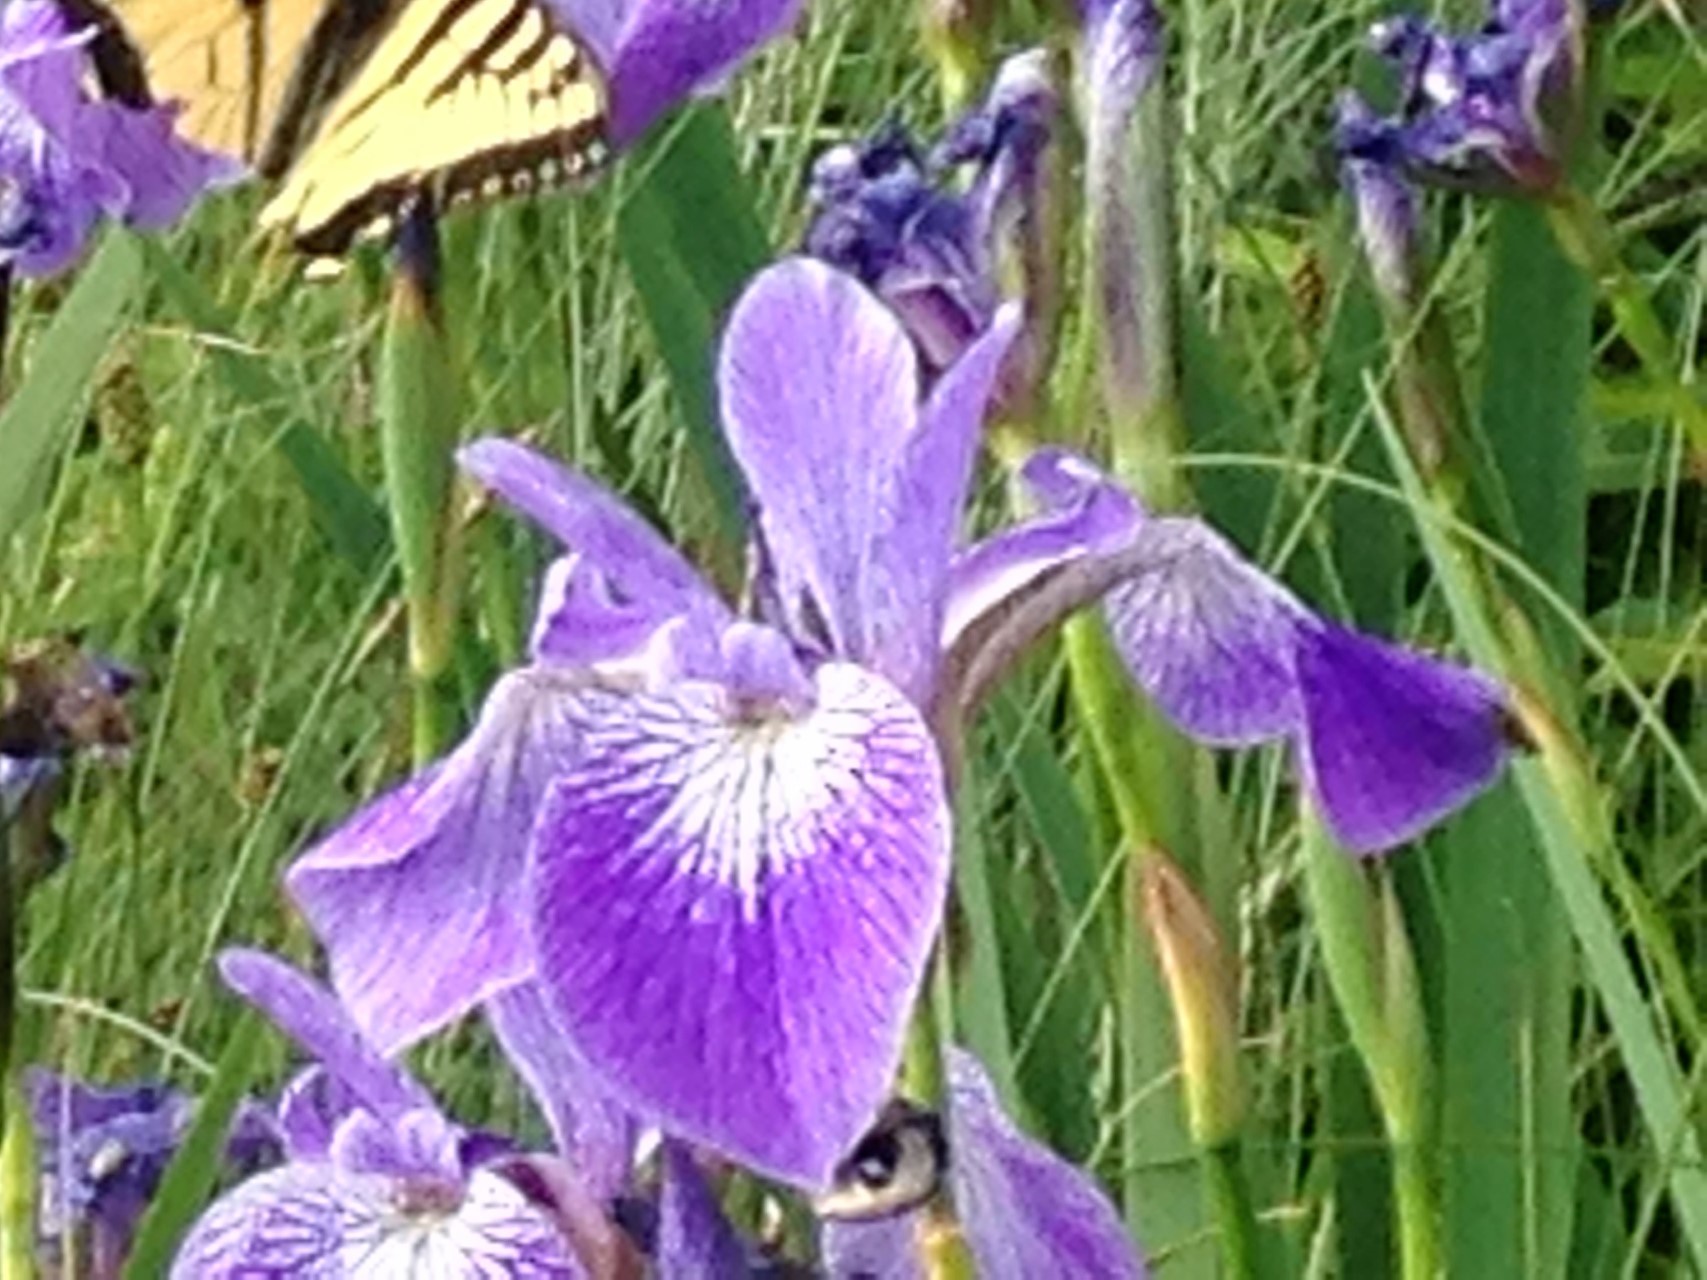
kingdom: Plantae
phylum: Tracheophyta
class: Liliopsida
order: Asparagales
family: Iridaceae
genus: Iris
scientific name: Iris versicolor
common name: Purple iris
